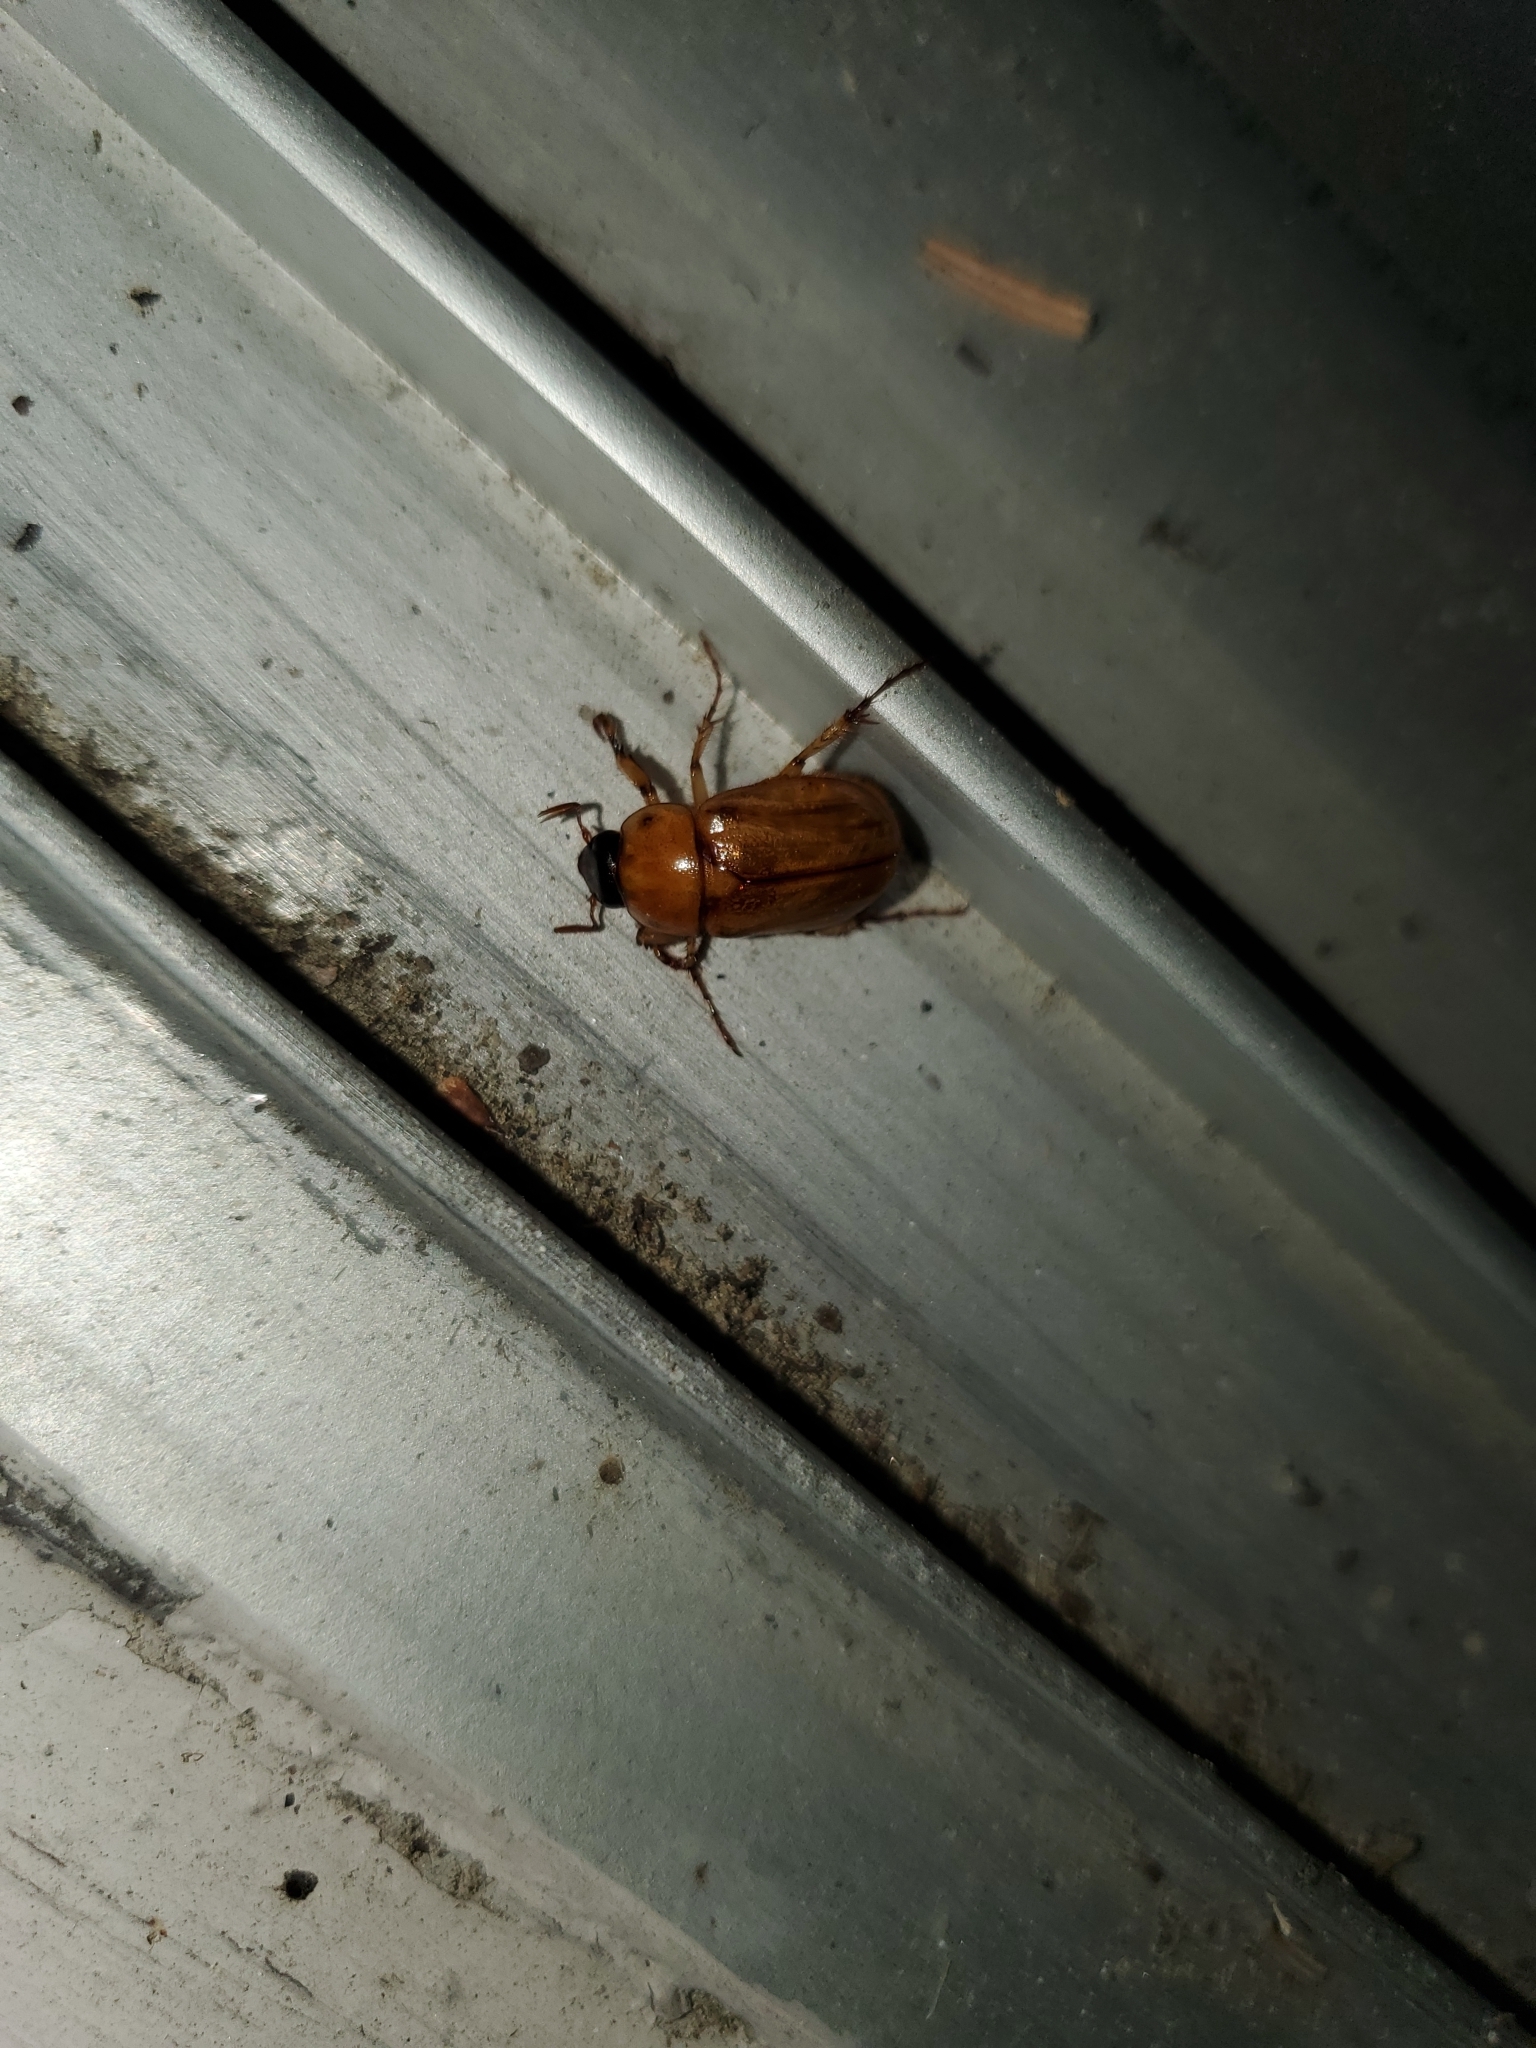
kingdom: Animalia
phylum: Arthropoda
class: Insecta
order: Coleoptera
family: Scarabaeidae
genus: Cyclocephala
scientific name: Cyclocephala lurida
